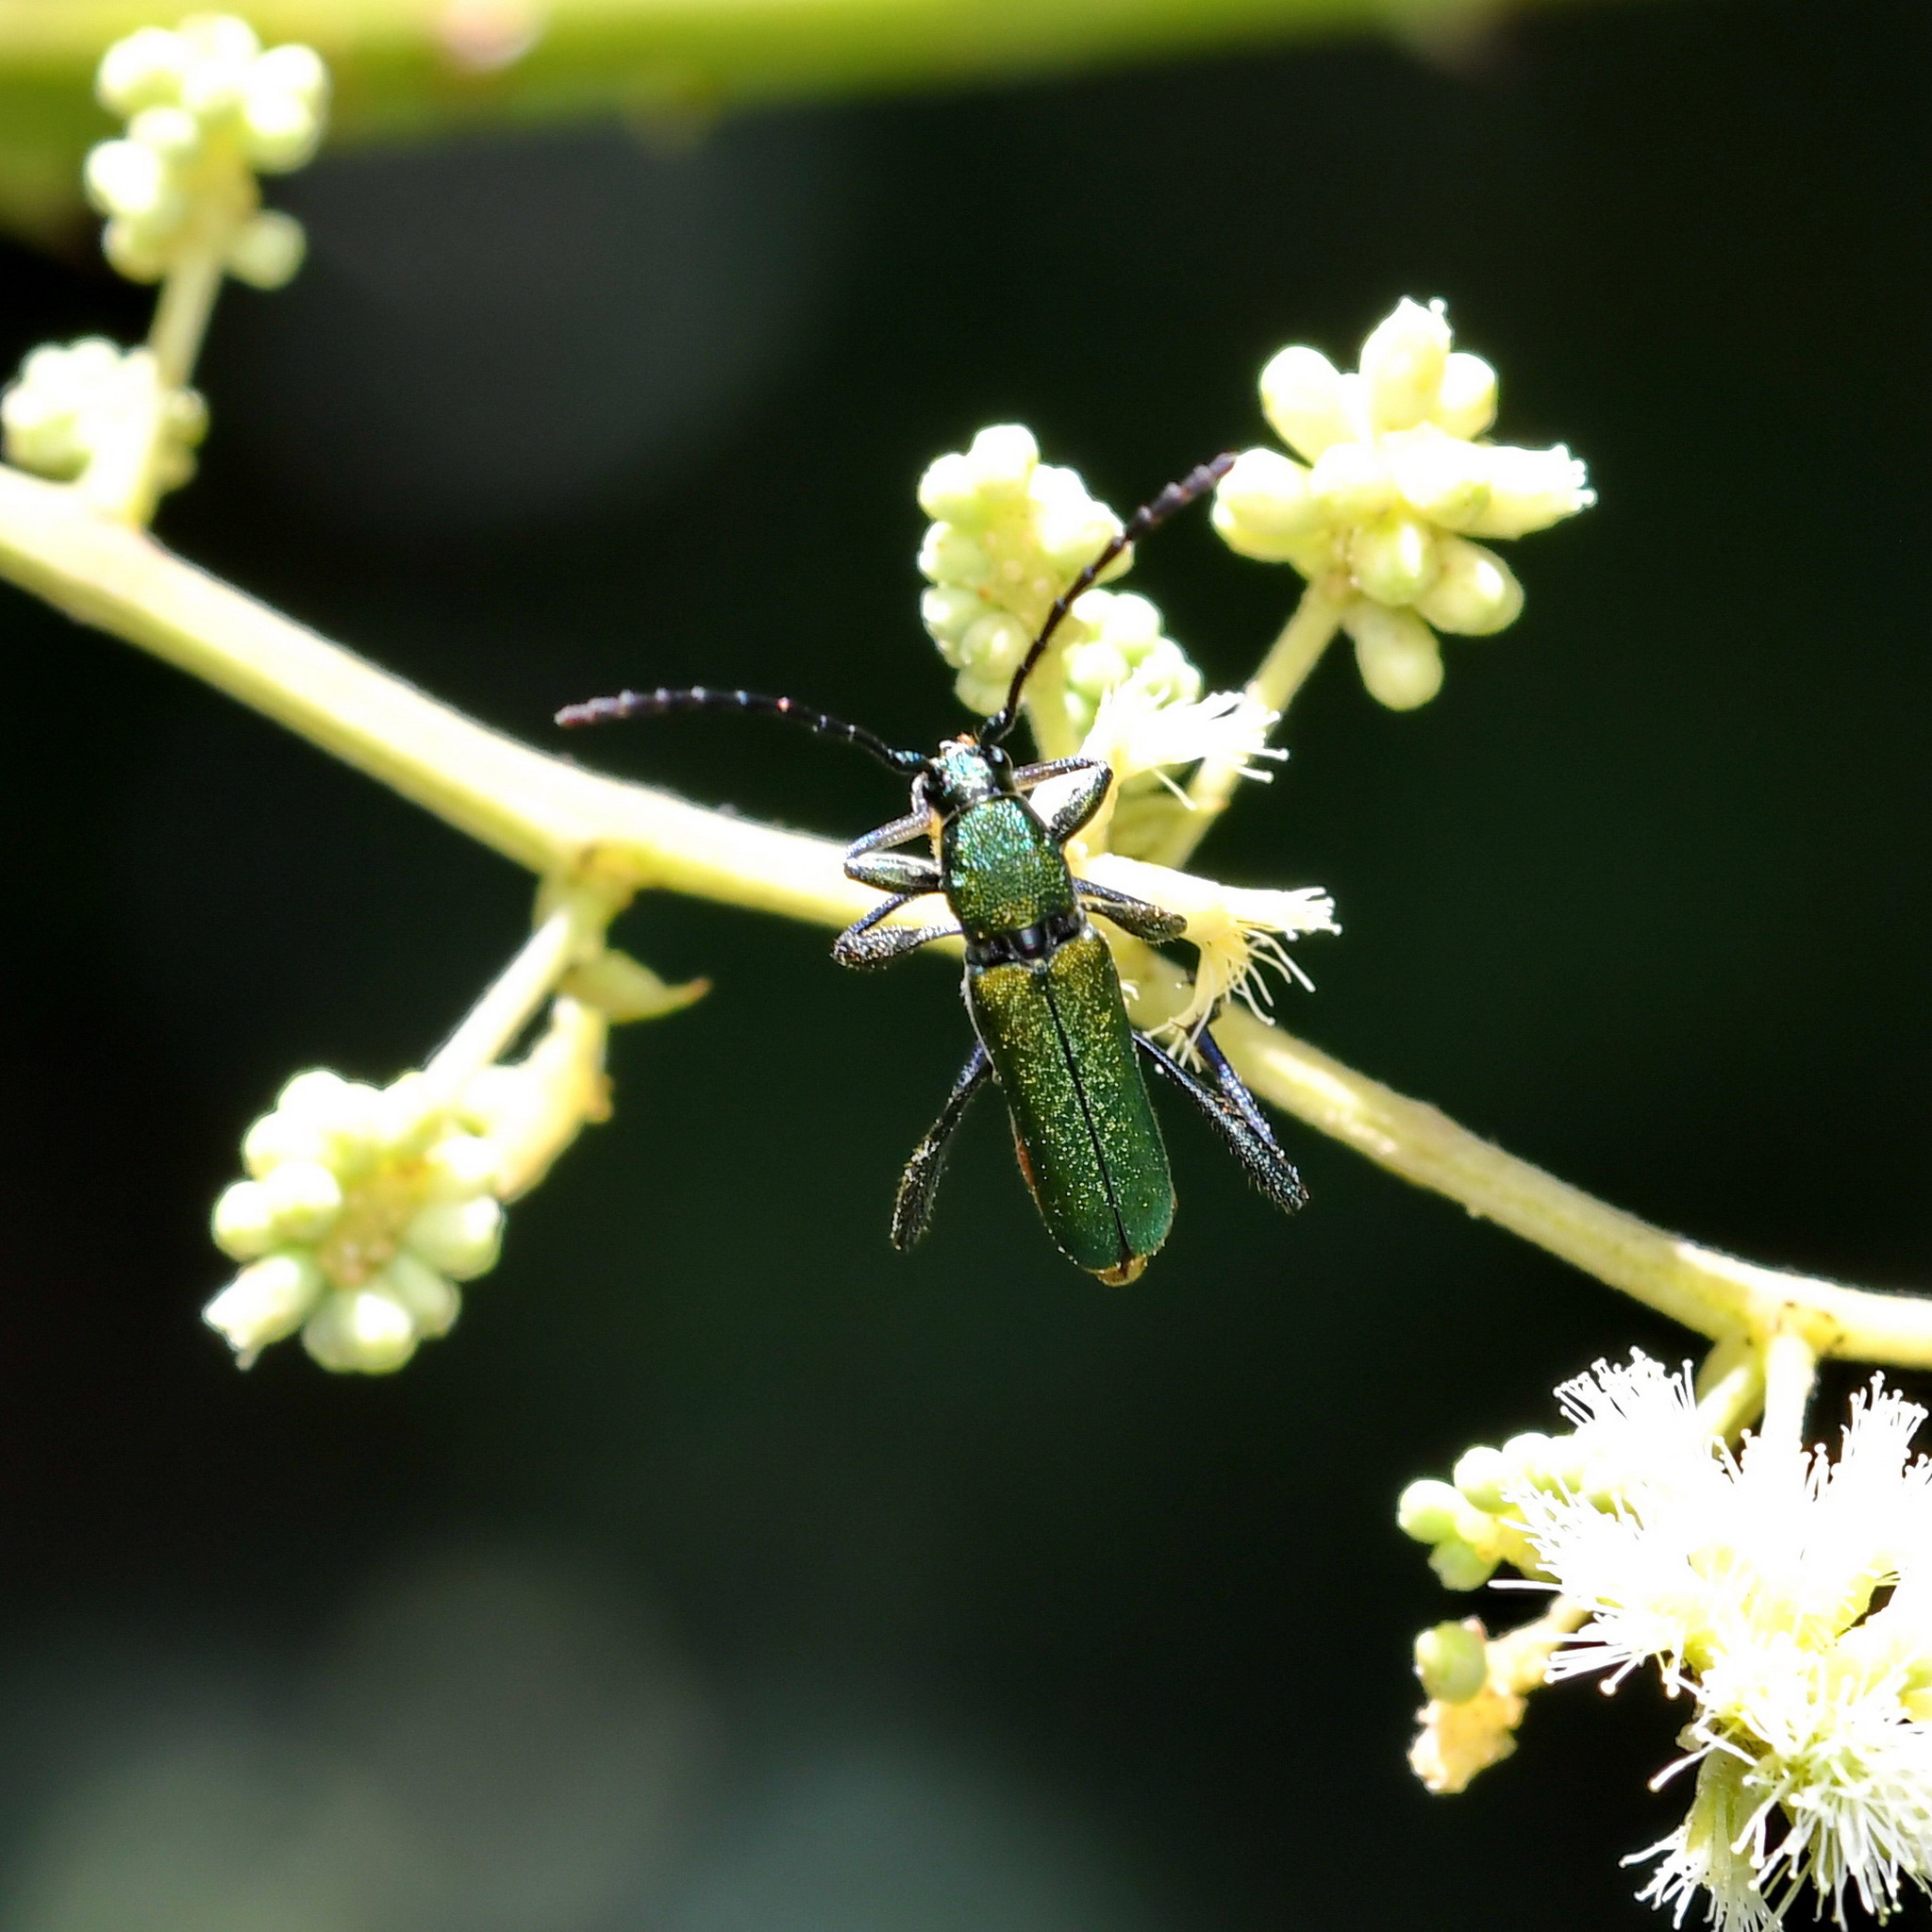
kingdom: Animalia
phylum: Arthropoda
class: Insecta
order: Coleoptera
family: Cerambycidae
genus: Grupiara
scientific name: Grupiara viridis
